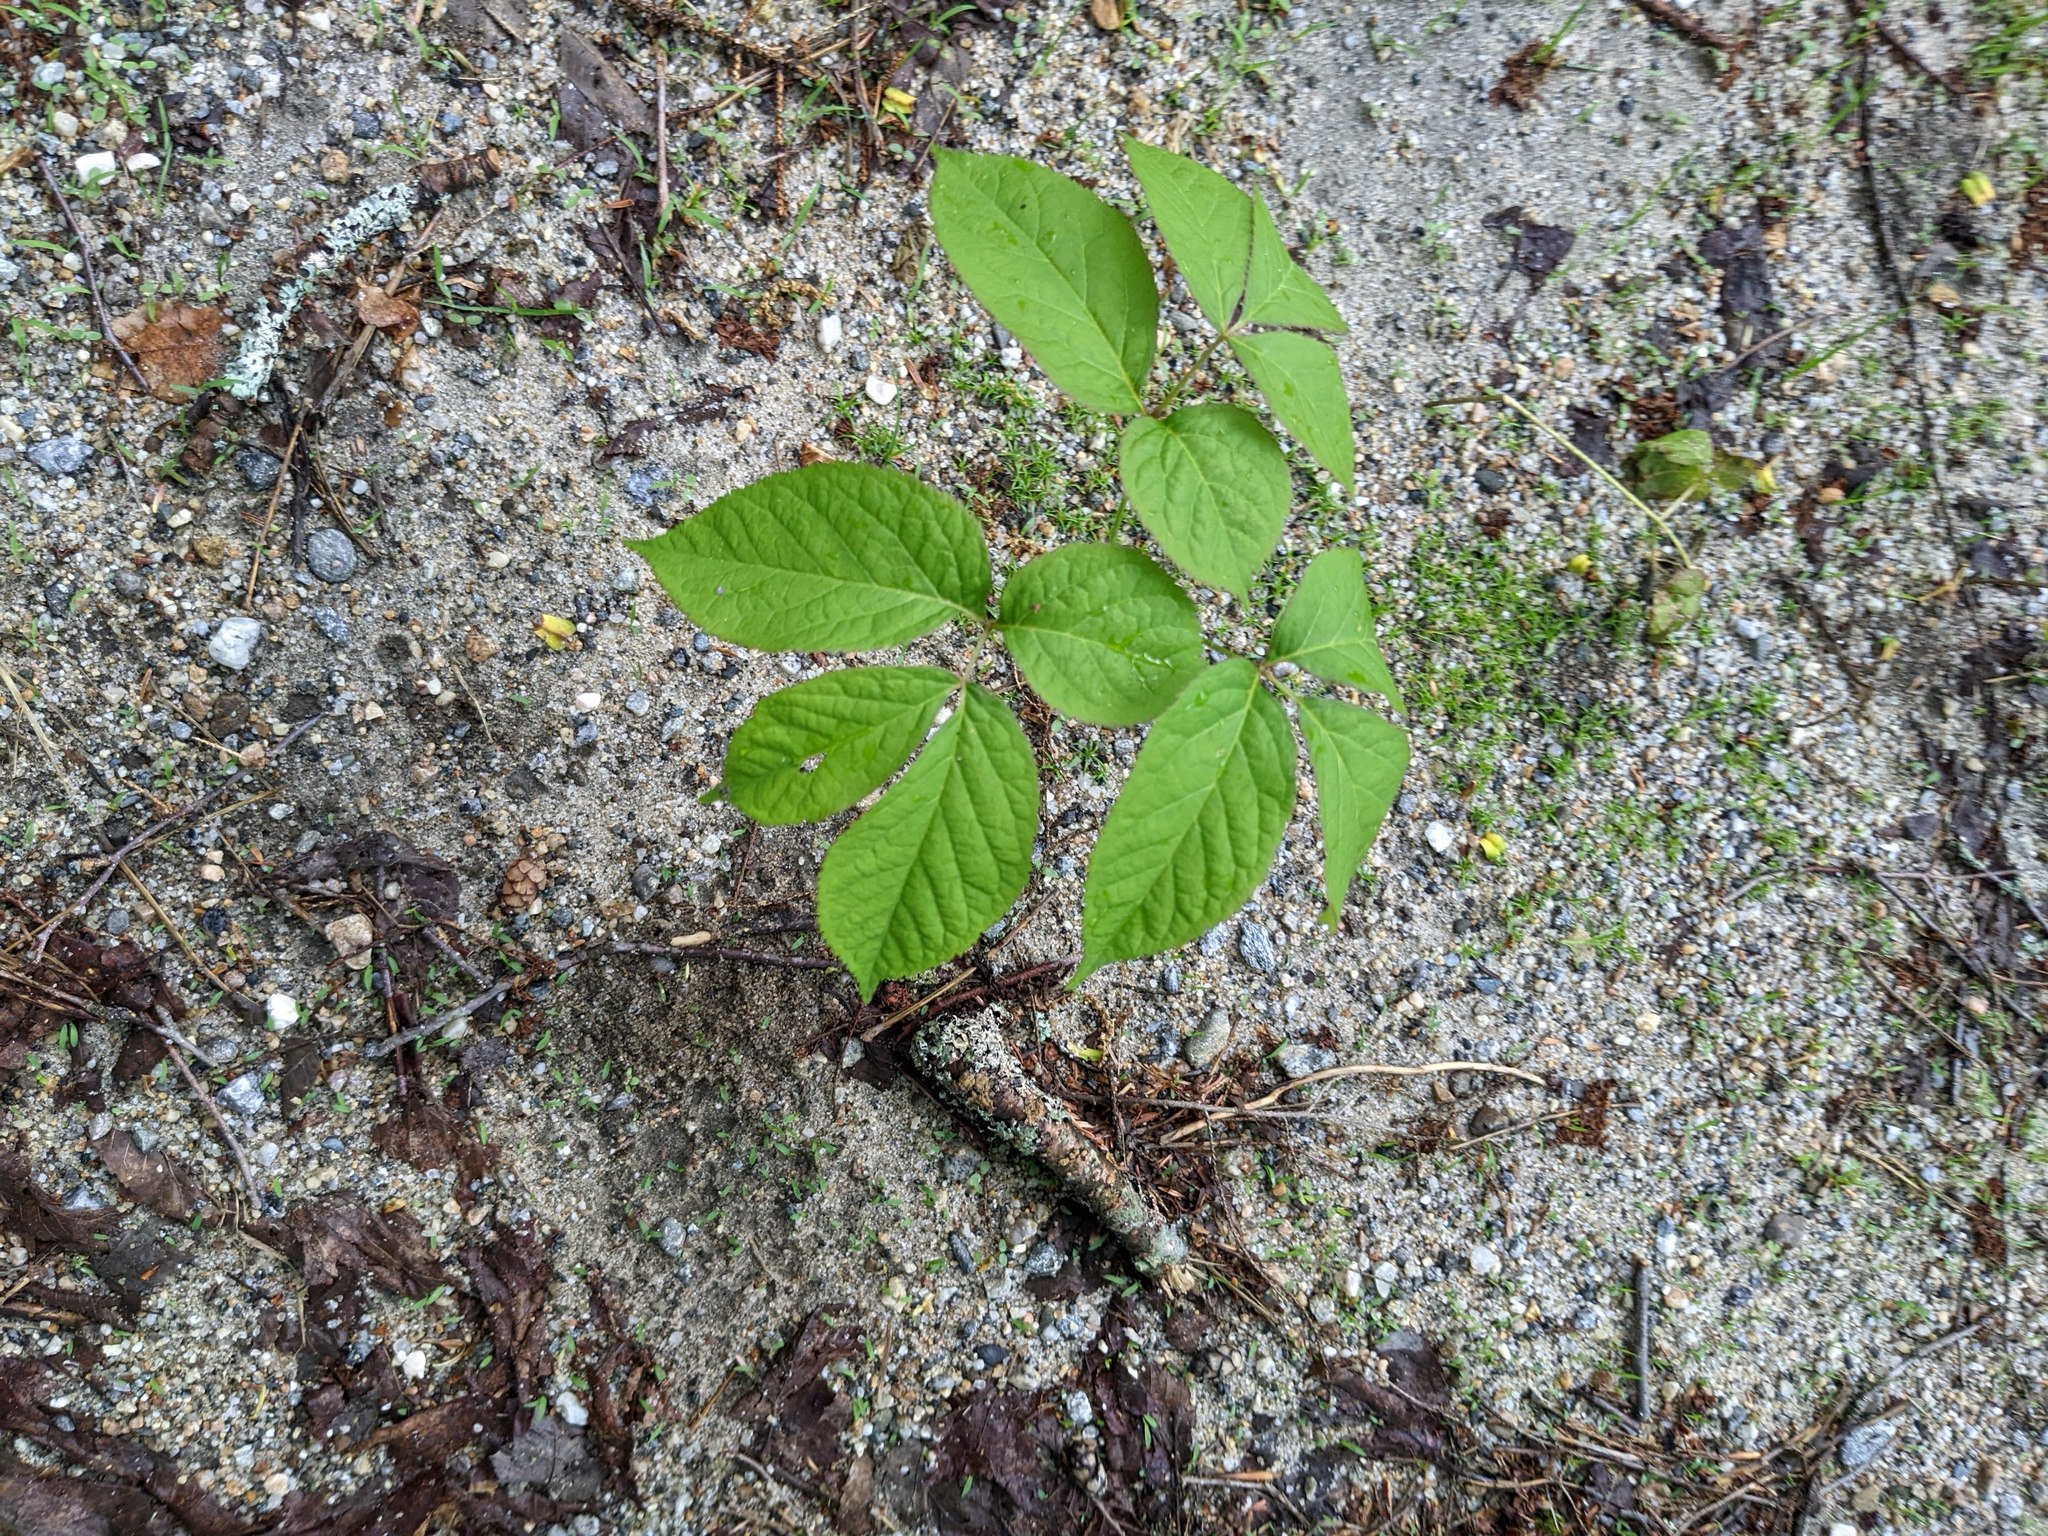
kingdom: Plantae
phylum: Tracheophyta
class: Magnoliopsida
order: Apiales
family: Araliaceae
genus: Aralia
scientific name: Aralia nudicaulis
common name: Wild sarsaparilla
